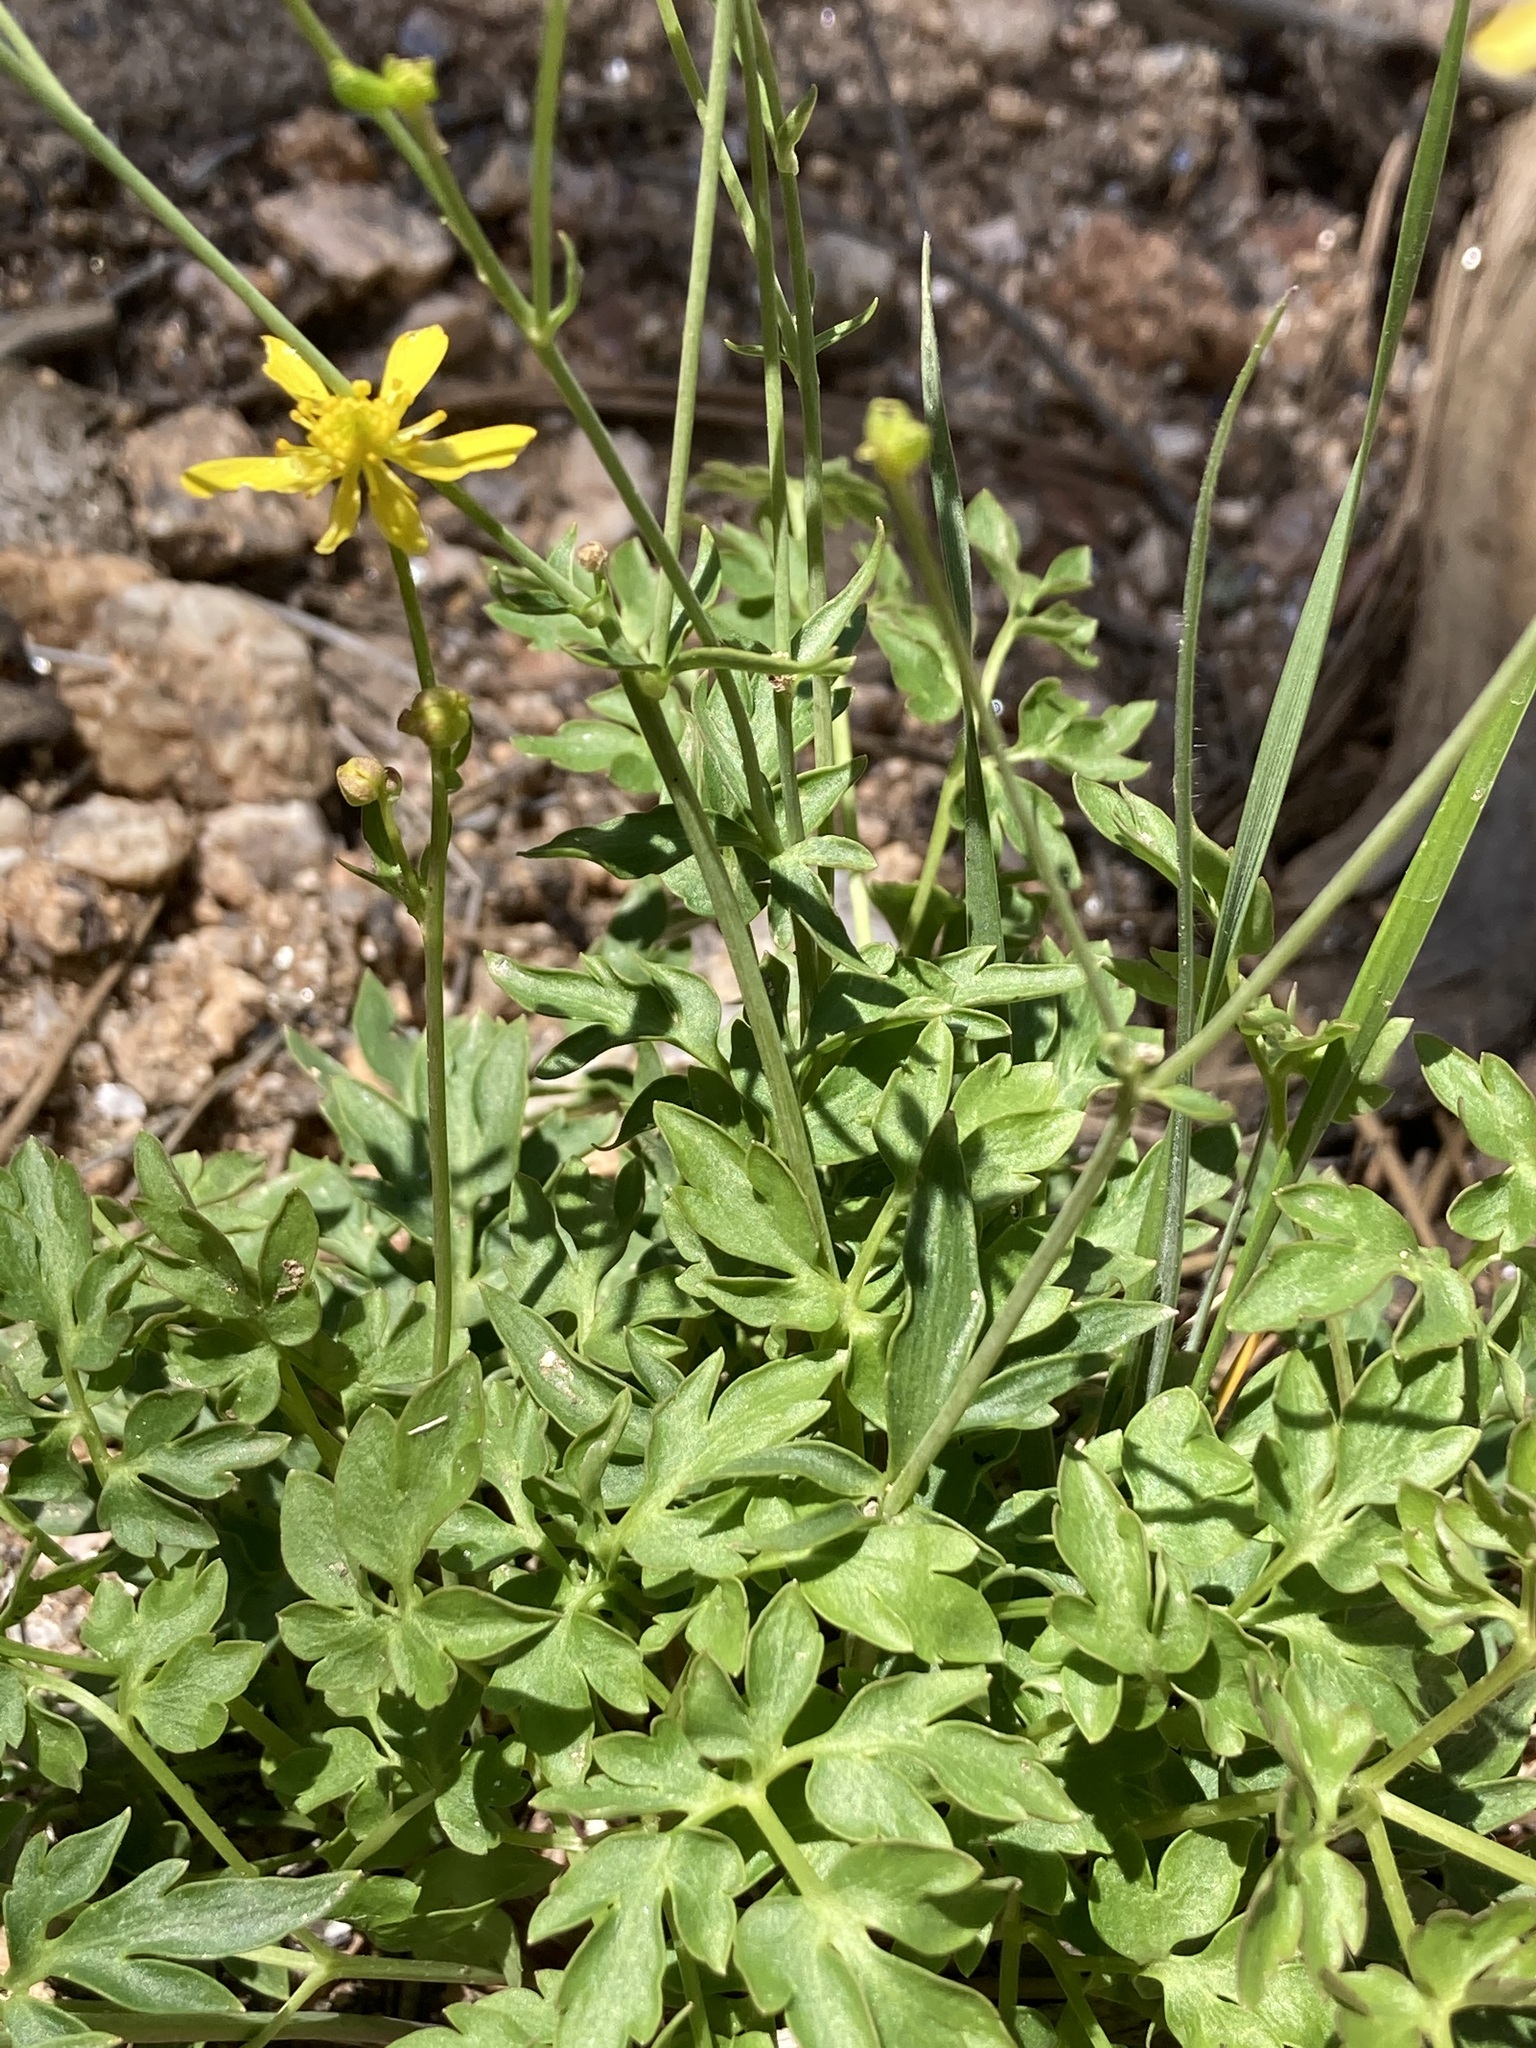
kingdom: Plantae
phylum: Tracheophyta
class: Magnoliopsida
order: Ranunculales
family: Ranunculaceae
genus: Cyrtorhyncha
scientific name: Cyrtorhyncha ranunculina
